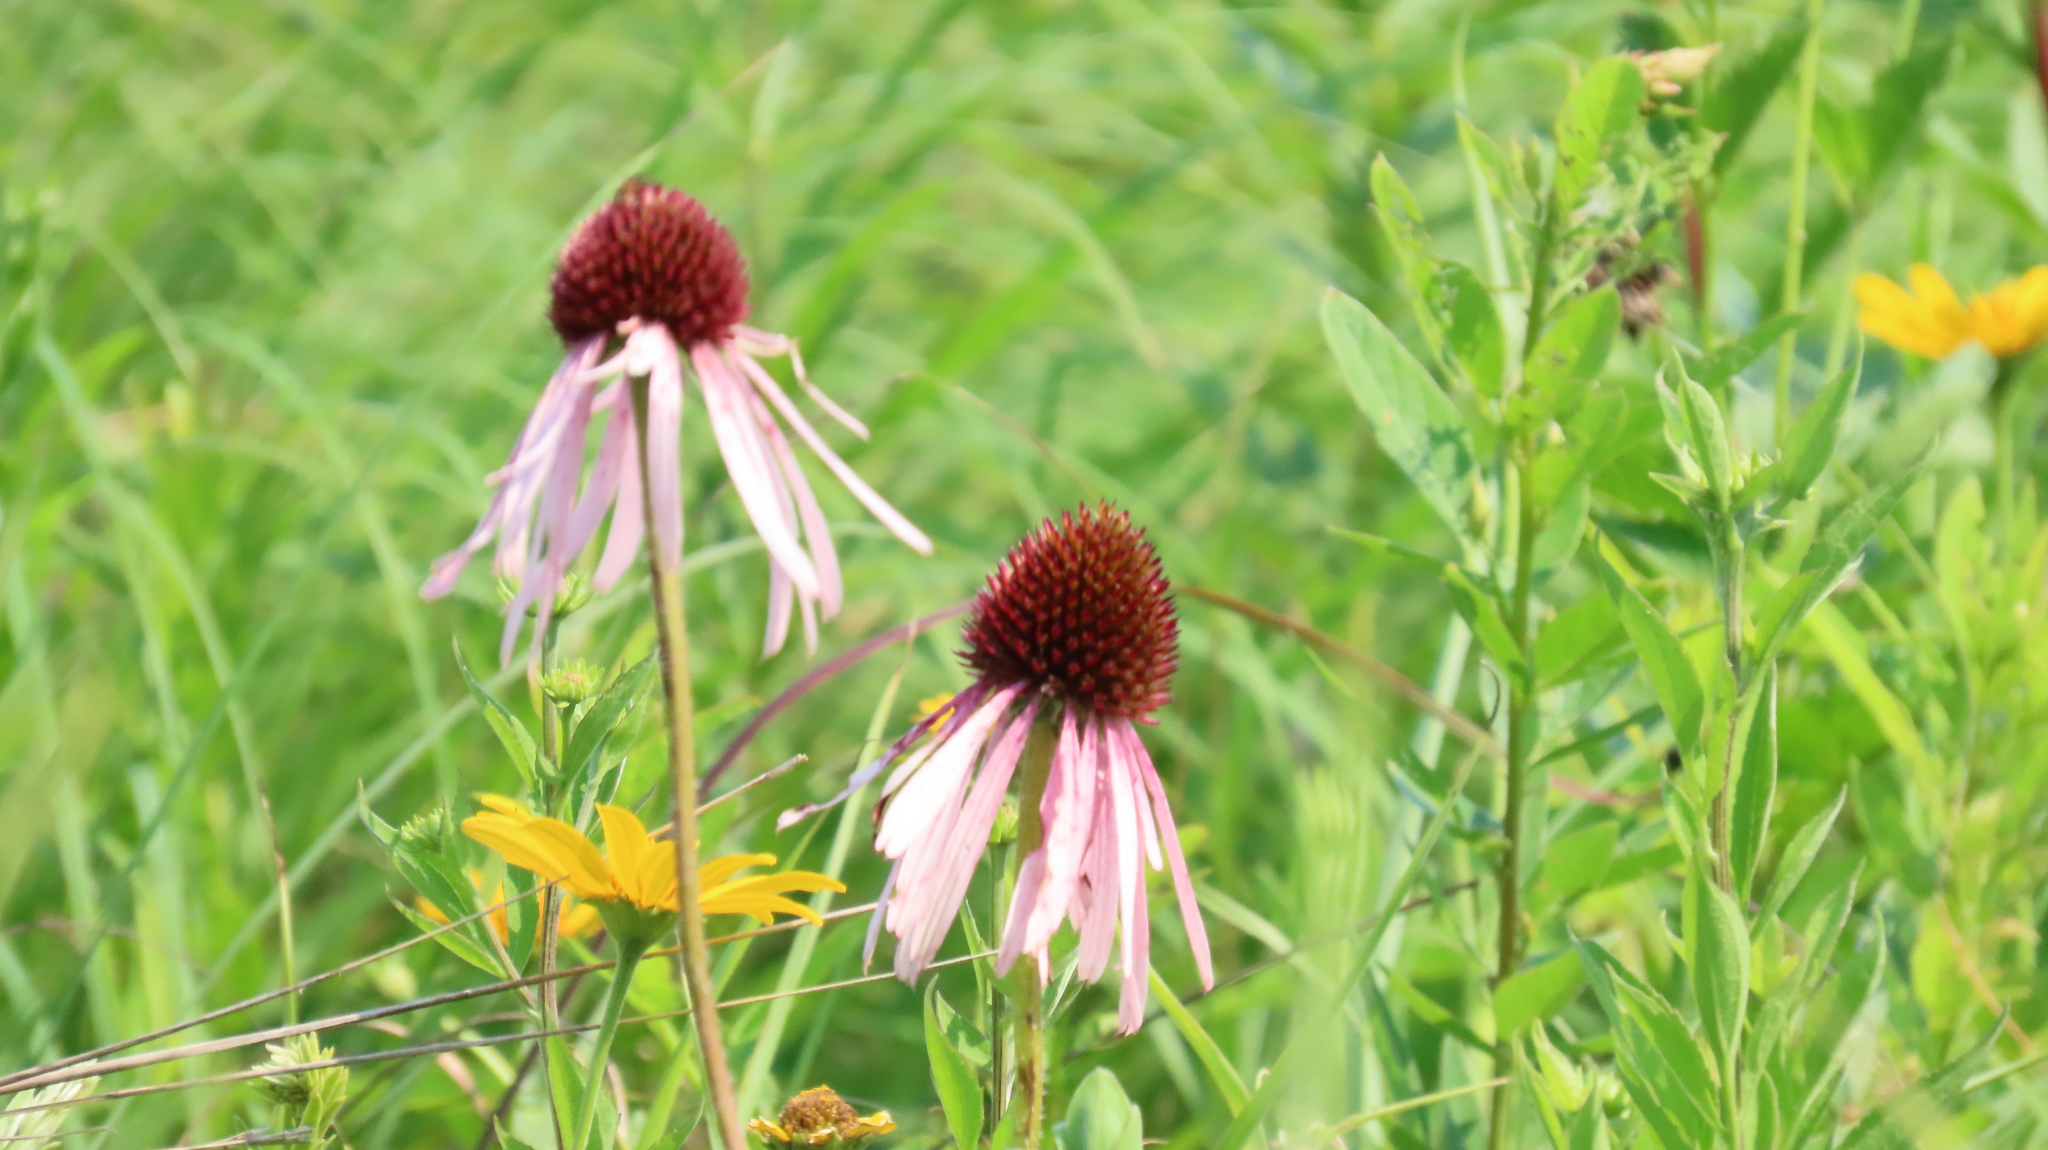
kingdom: Plantae
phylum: Tracheophyta
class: Magnoliopsida
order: Asterales
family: Asteraceae
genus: Echinacea
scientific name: Echinacea pallida
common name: Pale echinacea
